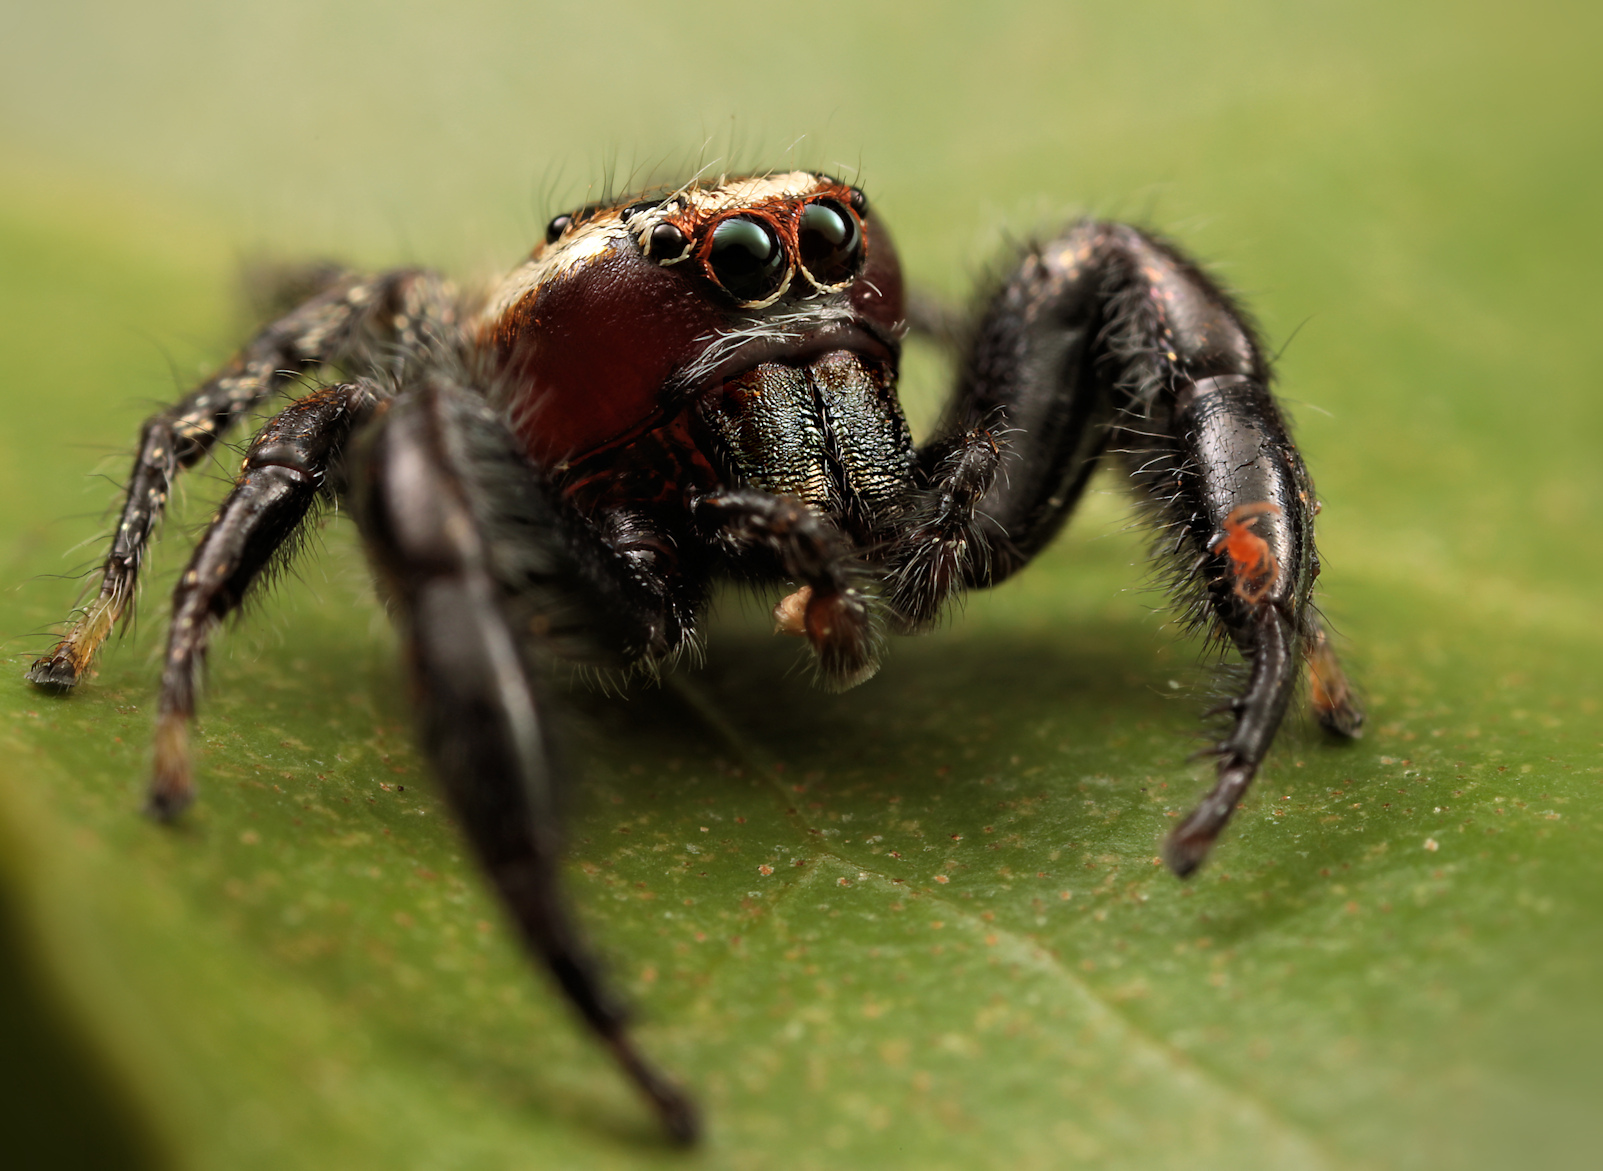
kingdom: Animalia
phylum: Arthropoda
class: Arachnida
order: Araneae
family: Salticidae
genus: Thyene
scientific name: Thyene bucculenta
